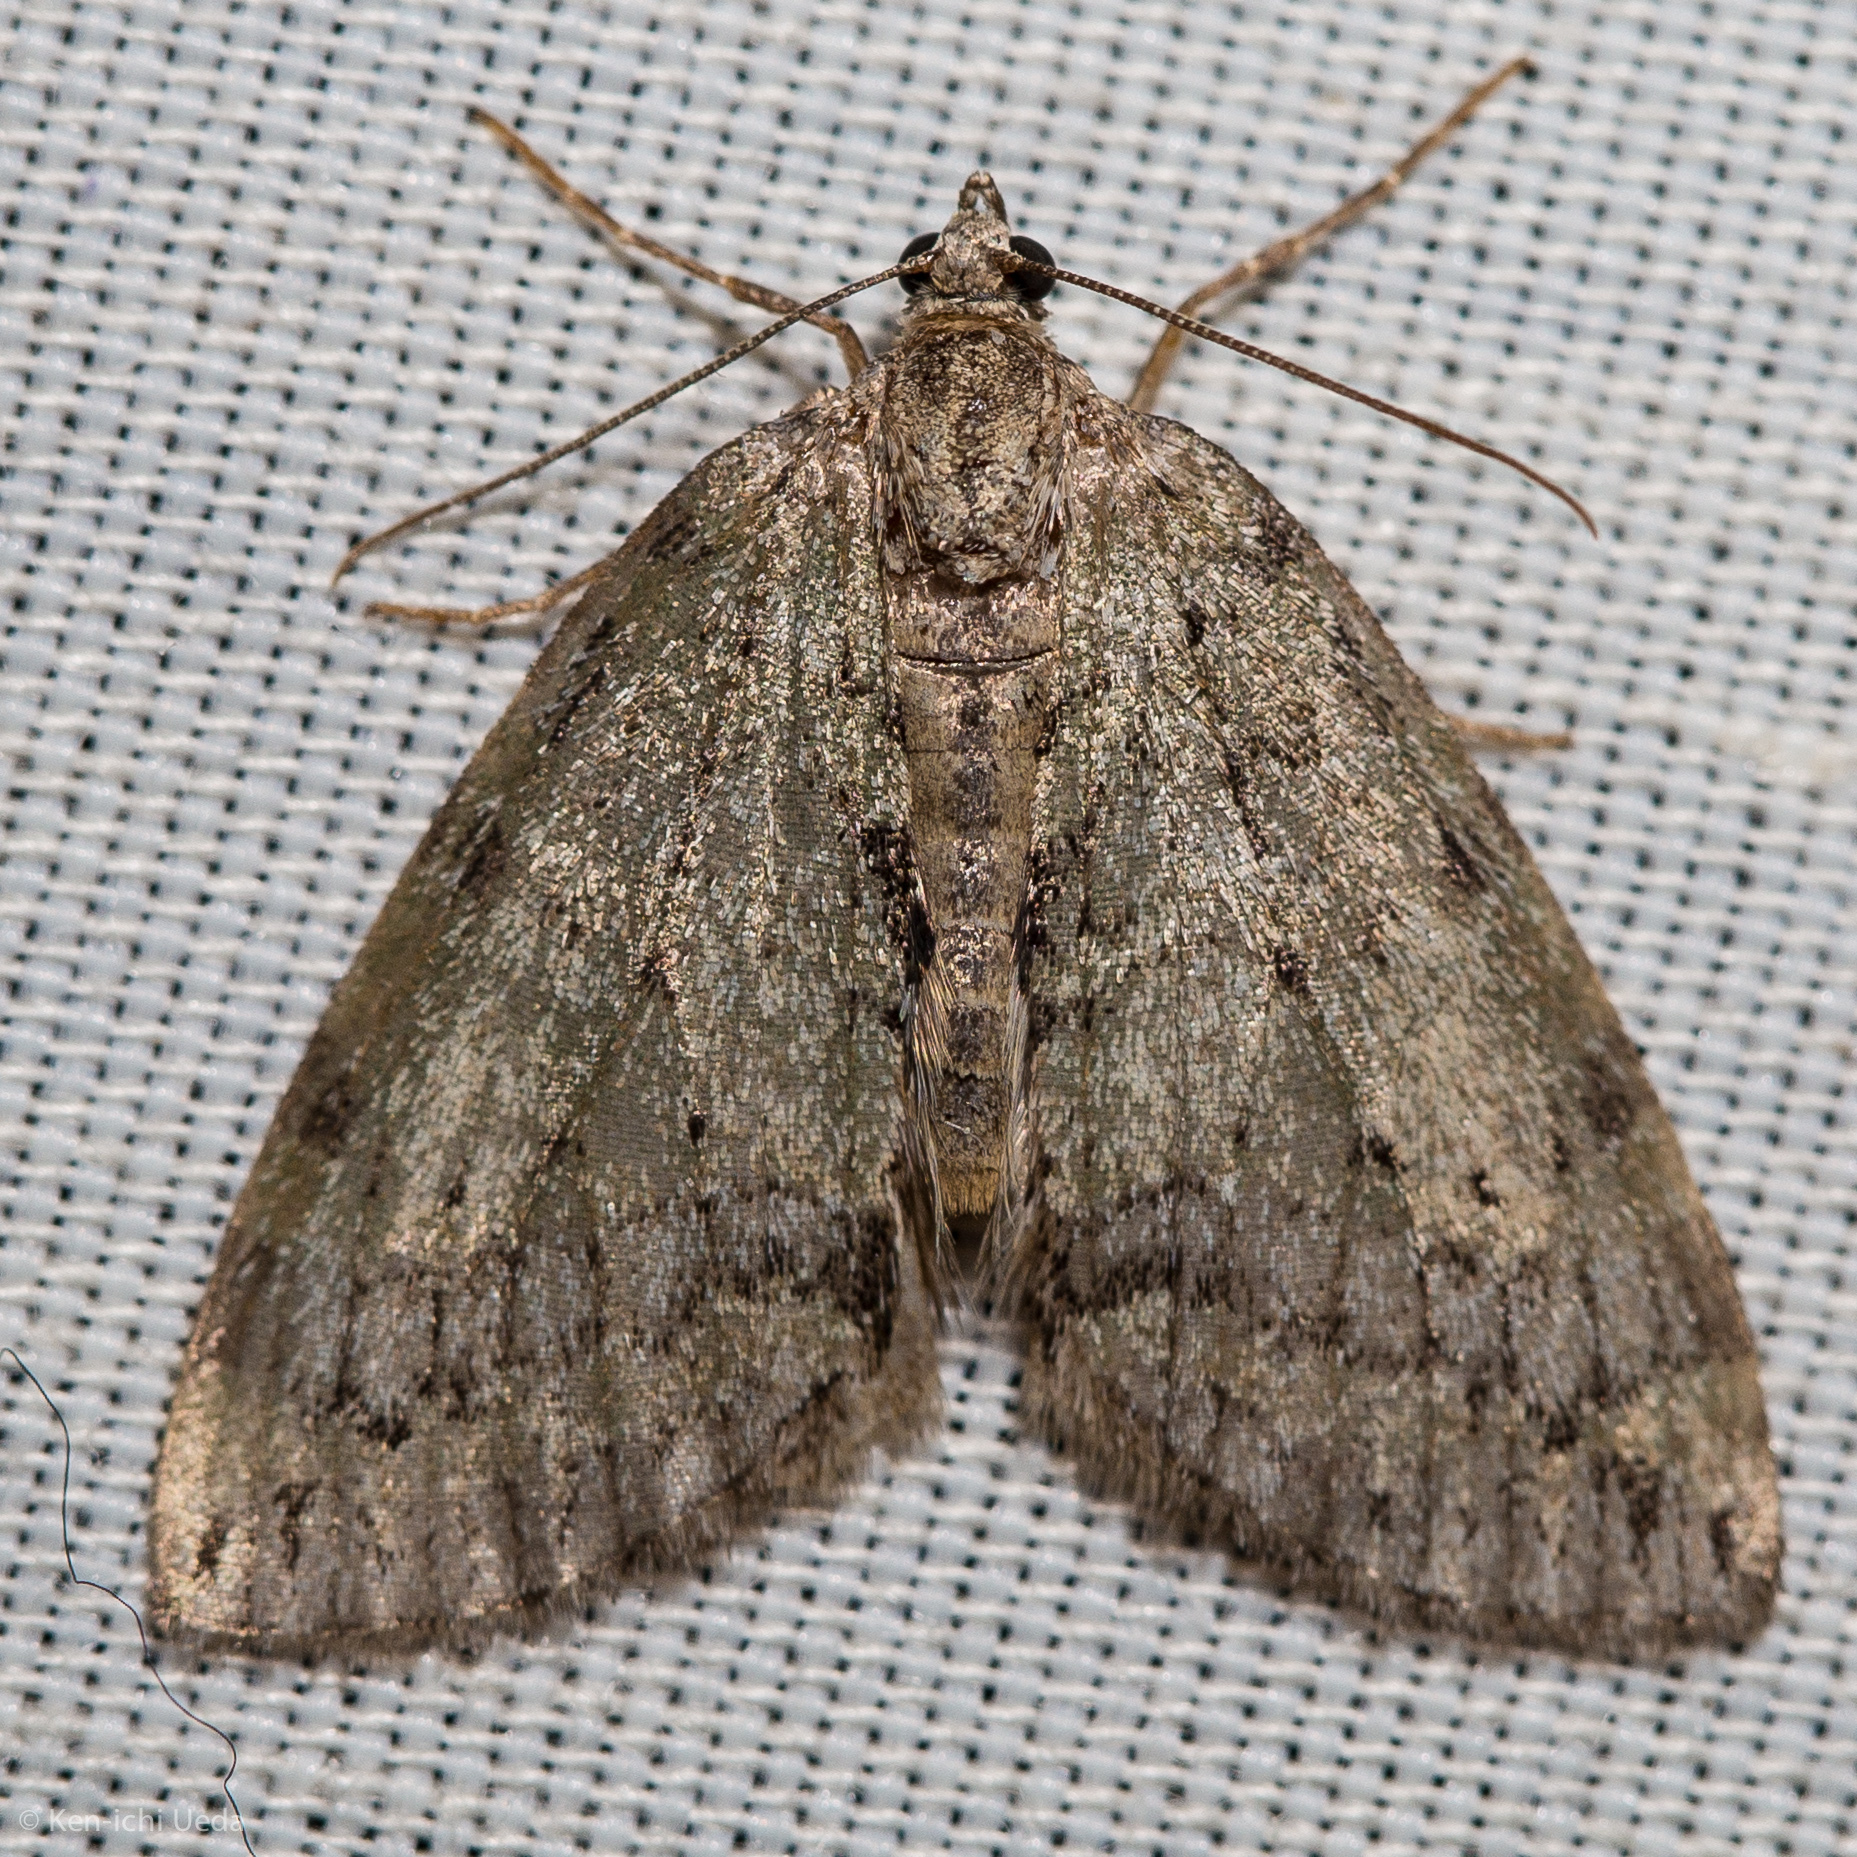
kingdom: Animalia
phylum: Arthropoda
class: Insecta
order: Lepidoptera
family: Geometridae
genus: Hydriomena
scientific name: Hydriomena nubilofasciata
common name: Oak winter highflier moth
